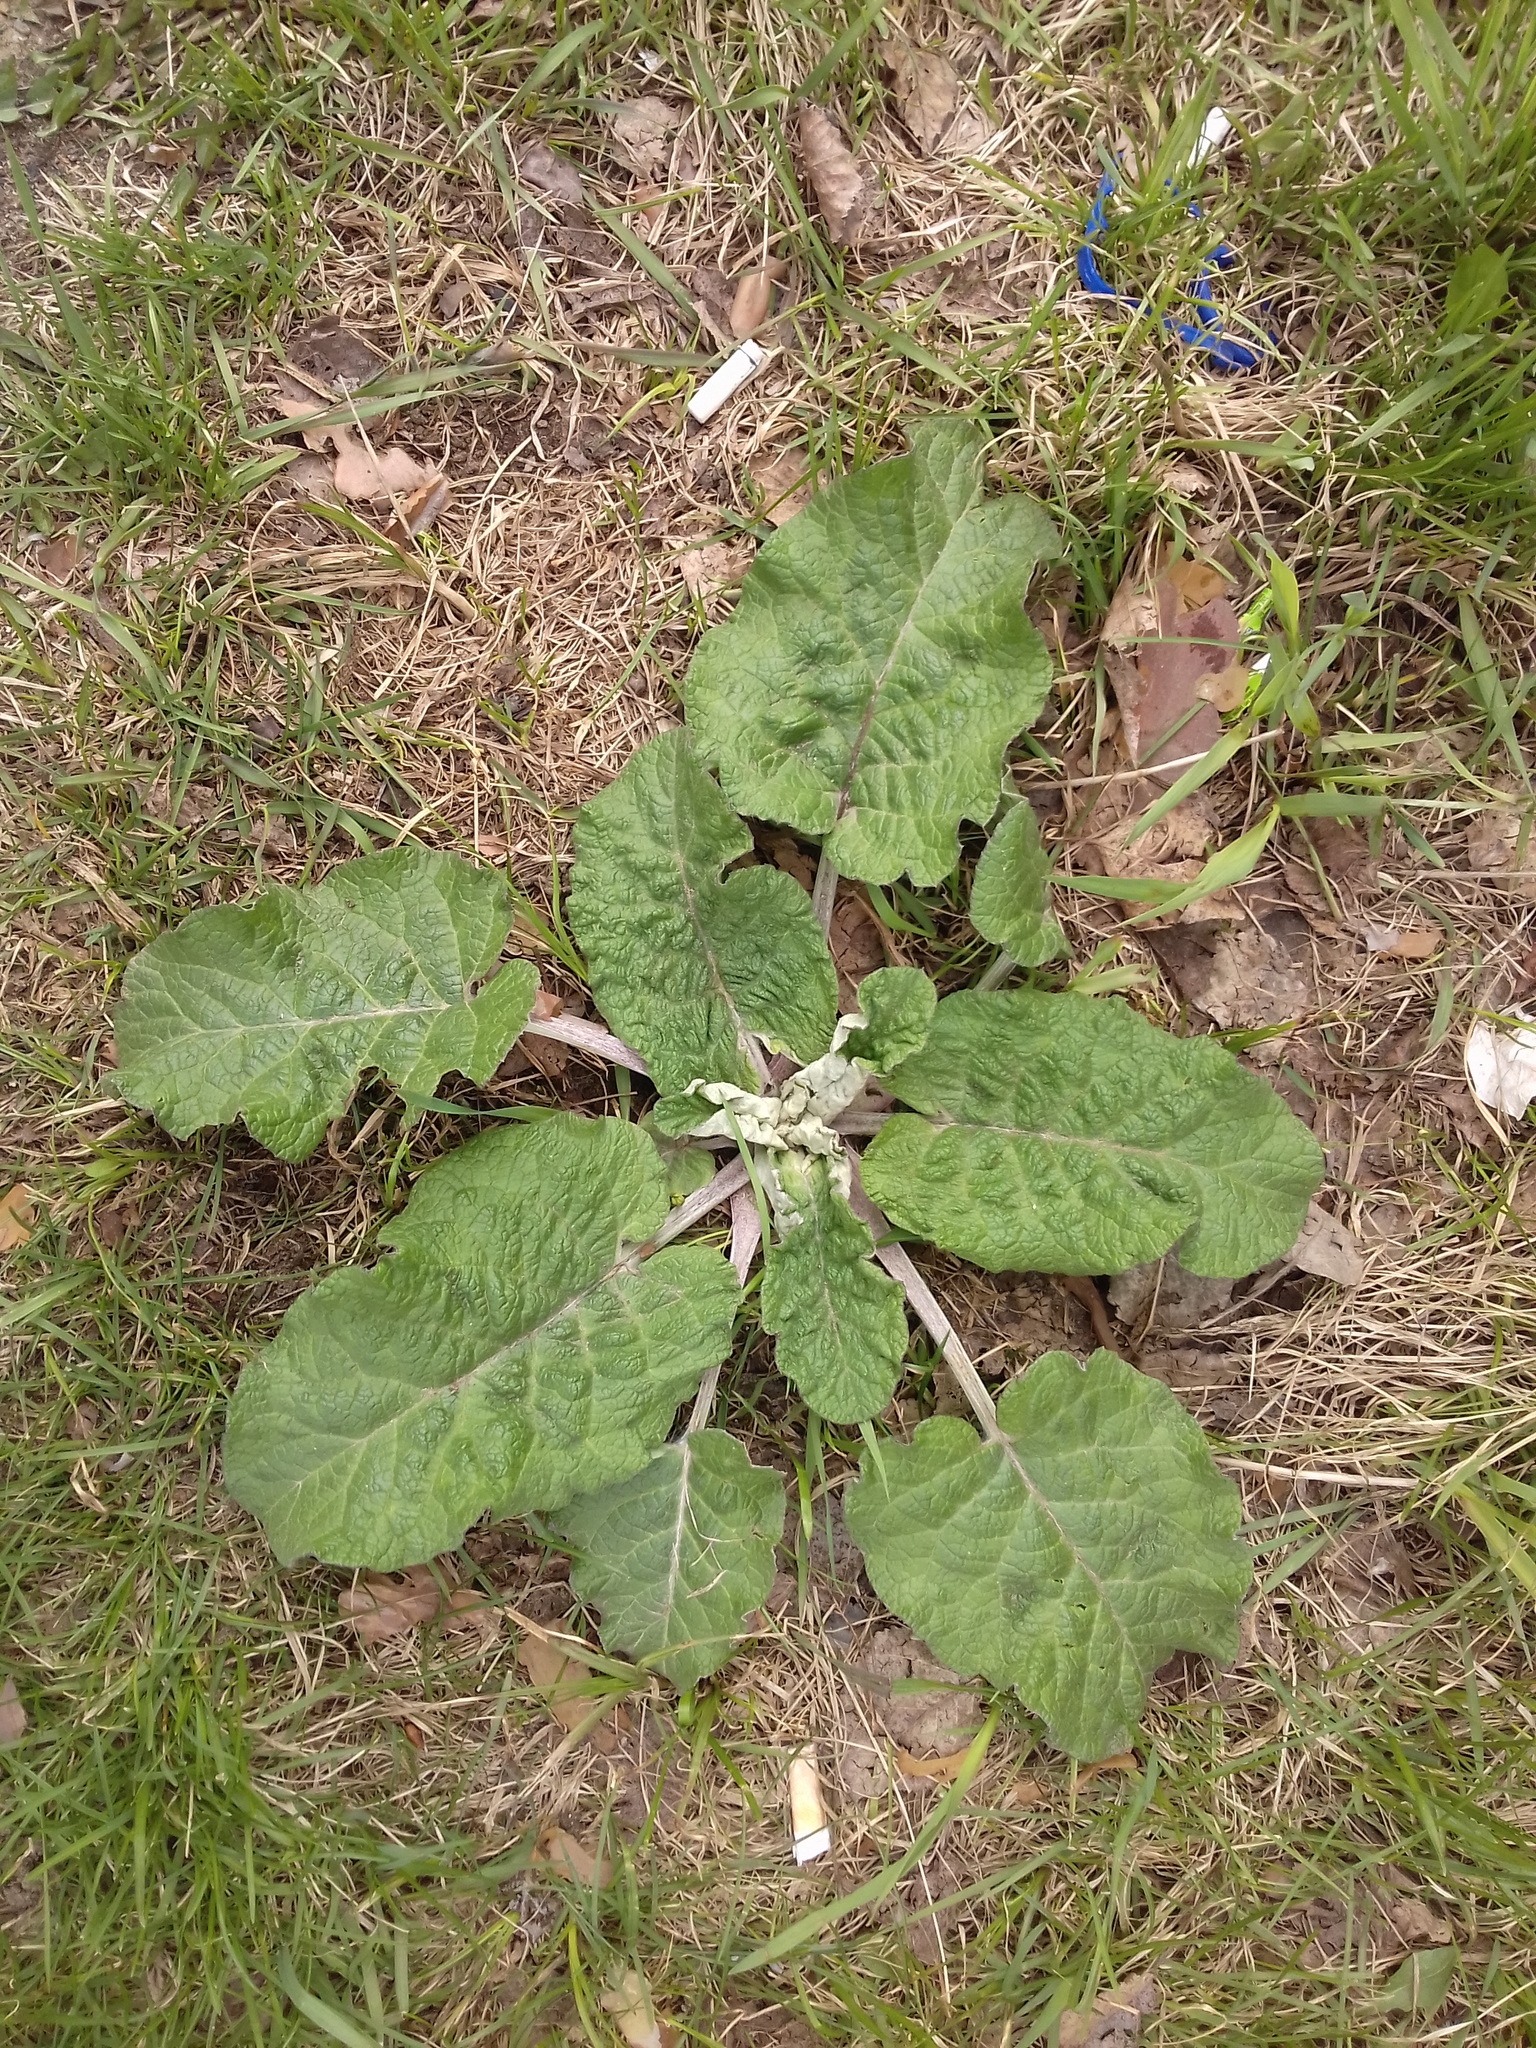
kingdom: Plantae
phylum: Tracheophyta
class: Magnoliopsida
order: Asterales
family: Asteraceae
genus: Arctium
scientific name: Arctium tomentosum
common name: Woolly burdock
